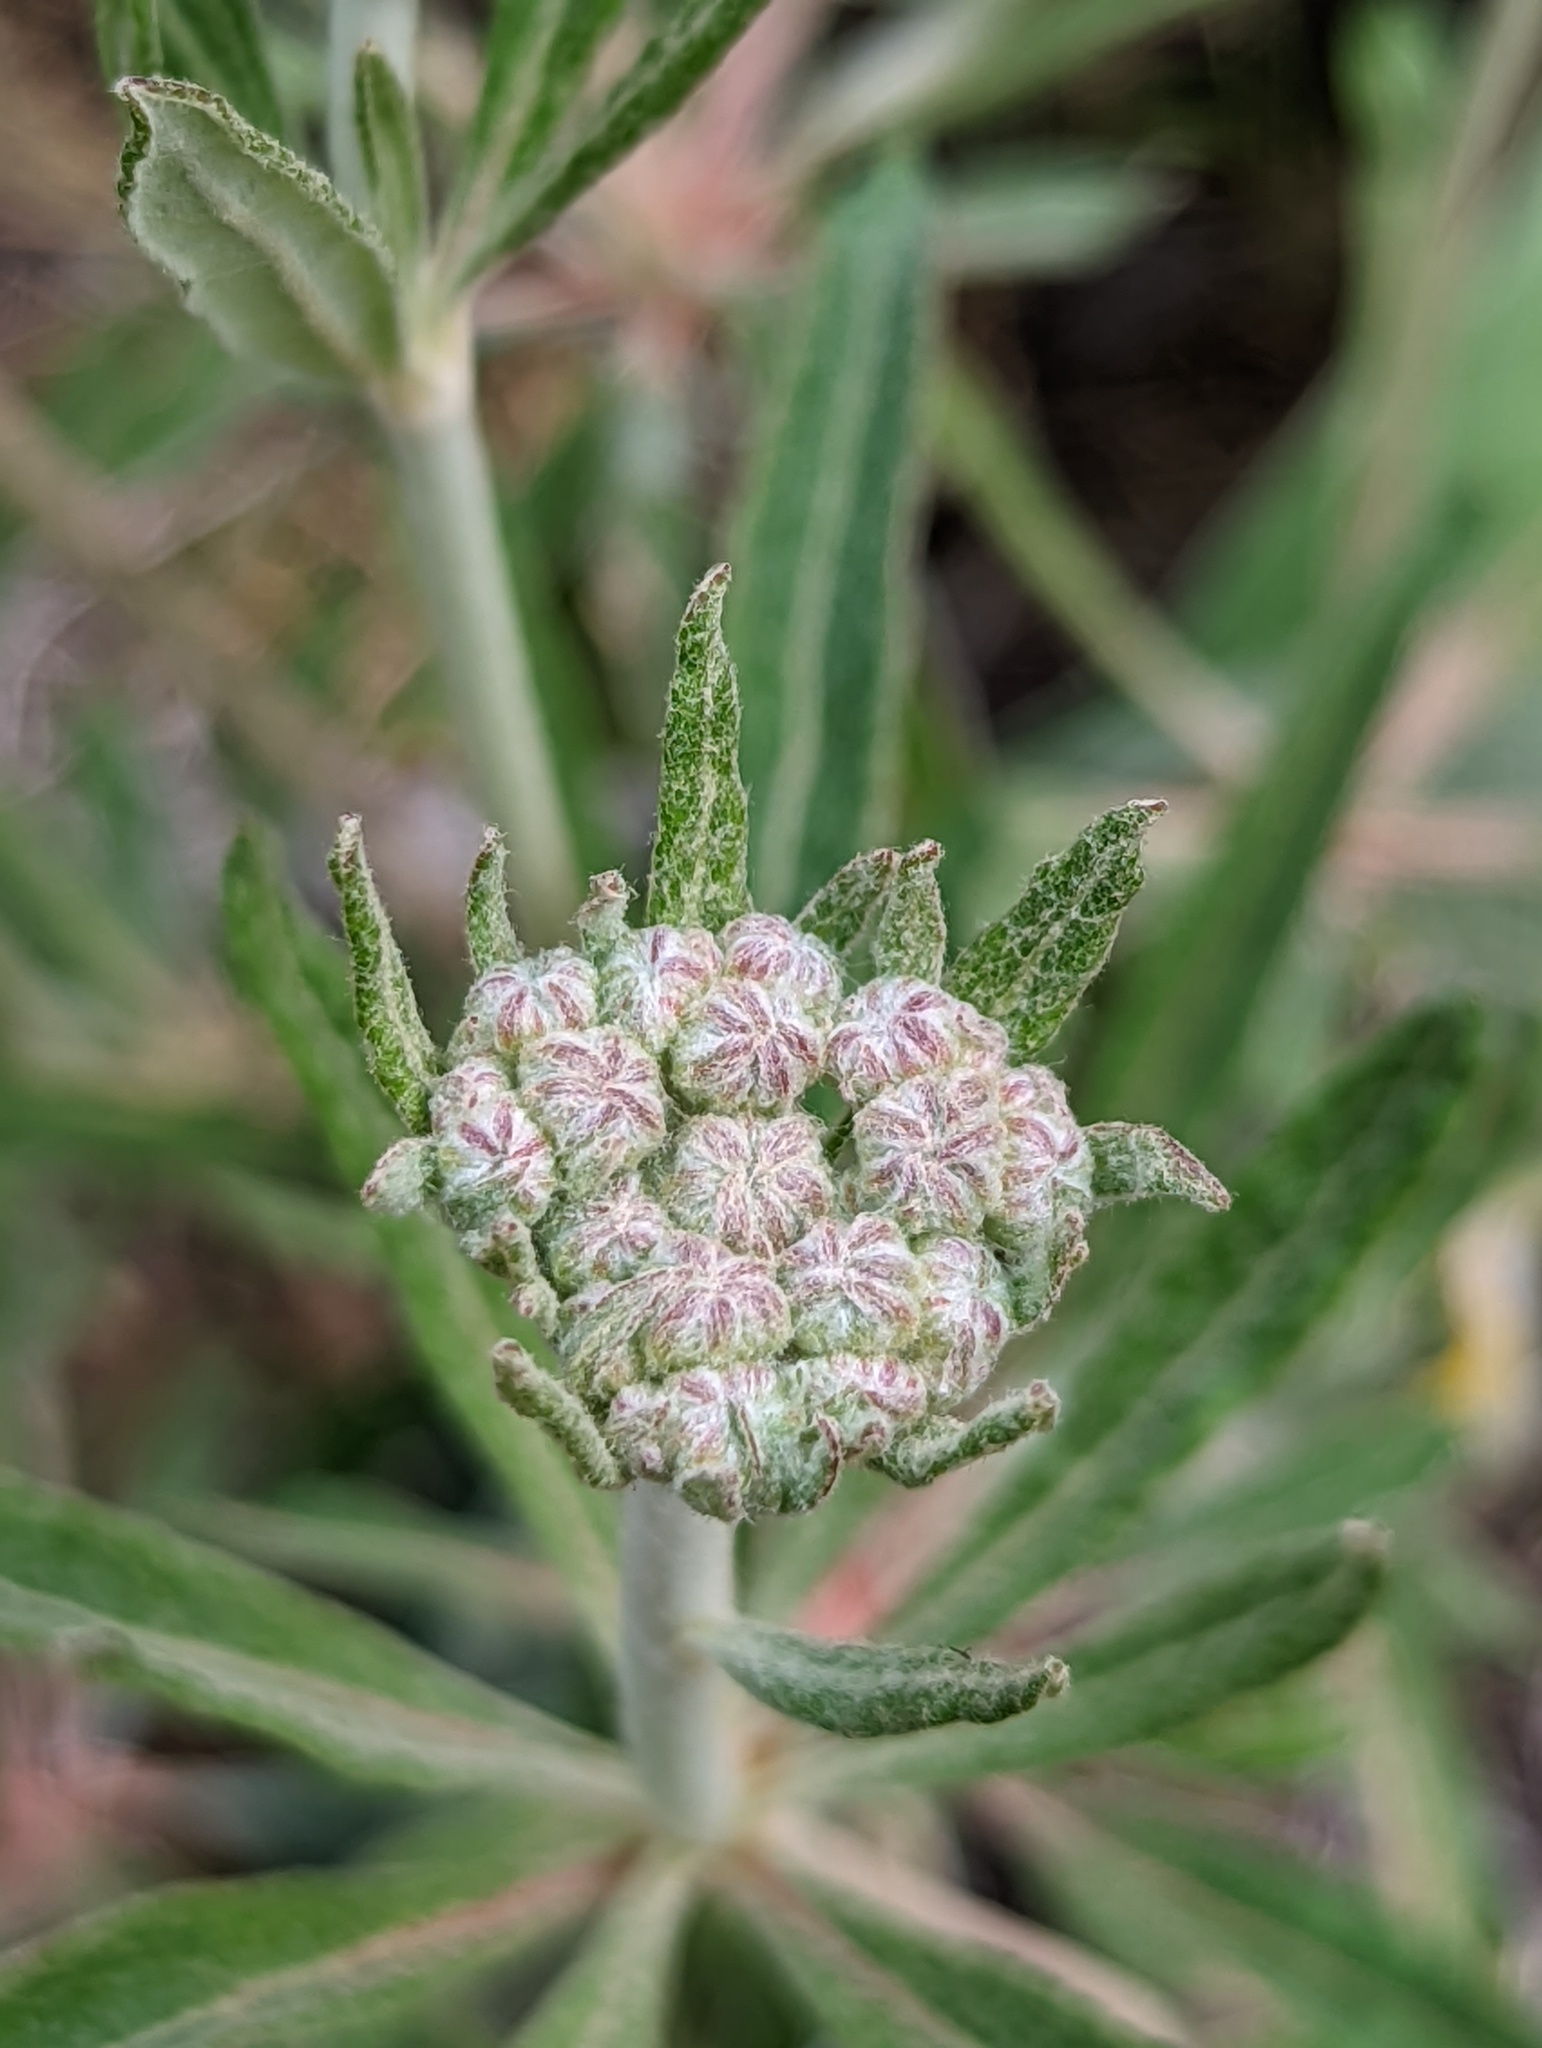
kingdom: Plantae
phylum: Tracheophyta
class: Magnoliopsida
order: Caryophyllales
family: Polygonaceae
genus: Eriogonum
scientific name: Eriogonum heracleoides
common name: Wyeth's buckwheat
